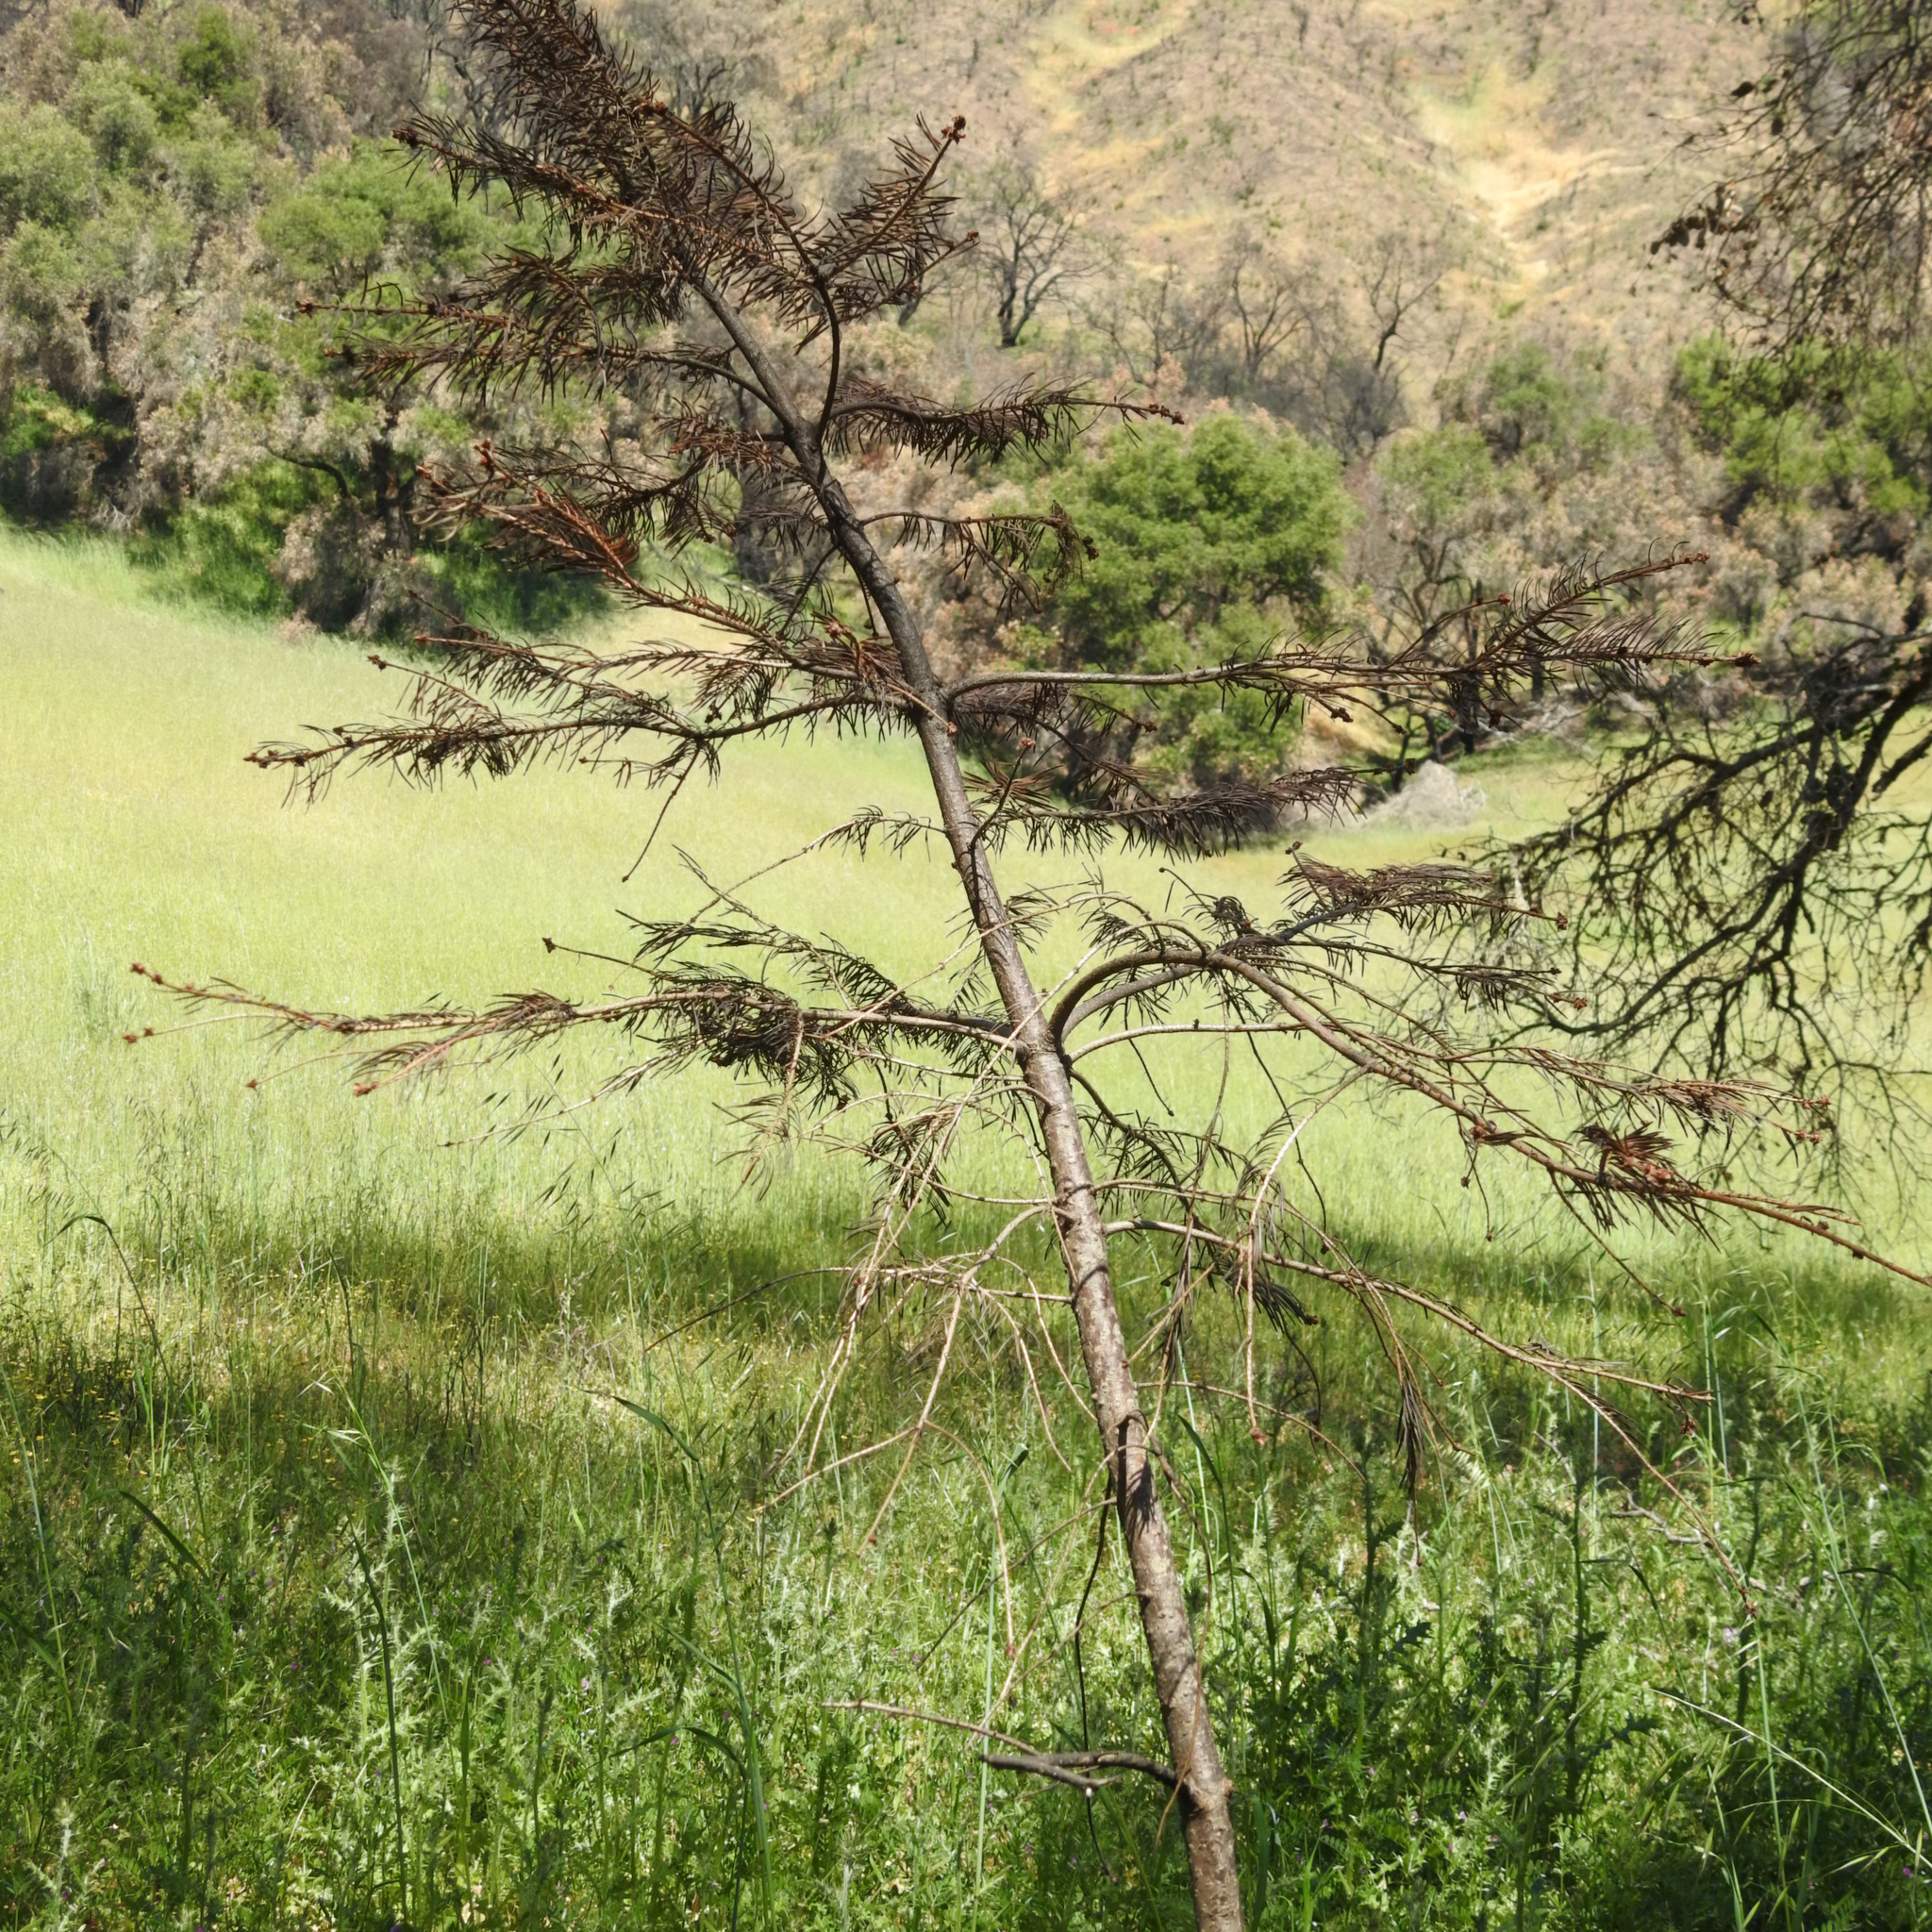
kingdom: Plantae
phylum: Tracheophyta
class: Pinopsida
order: Pinales
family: Pinaceae
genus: Pseudotsuga
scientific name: Pseudotsuga menziesii
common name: Douglas fir
